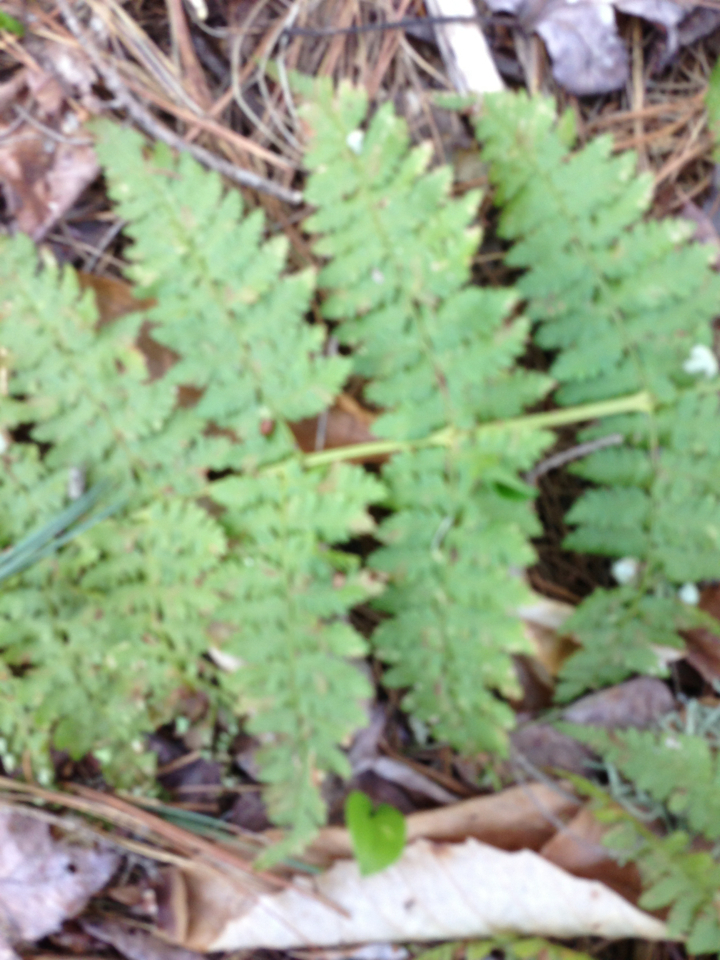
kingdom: Plantae
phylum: Tracheophyta
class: Polypodiopsida
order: Polypodiales
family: Dryopteridaceae
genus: Dryopteris
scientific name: Dryopteris intermedia
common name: Evergreen wood fern
